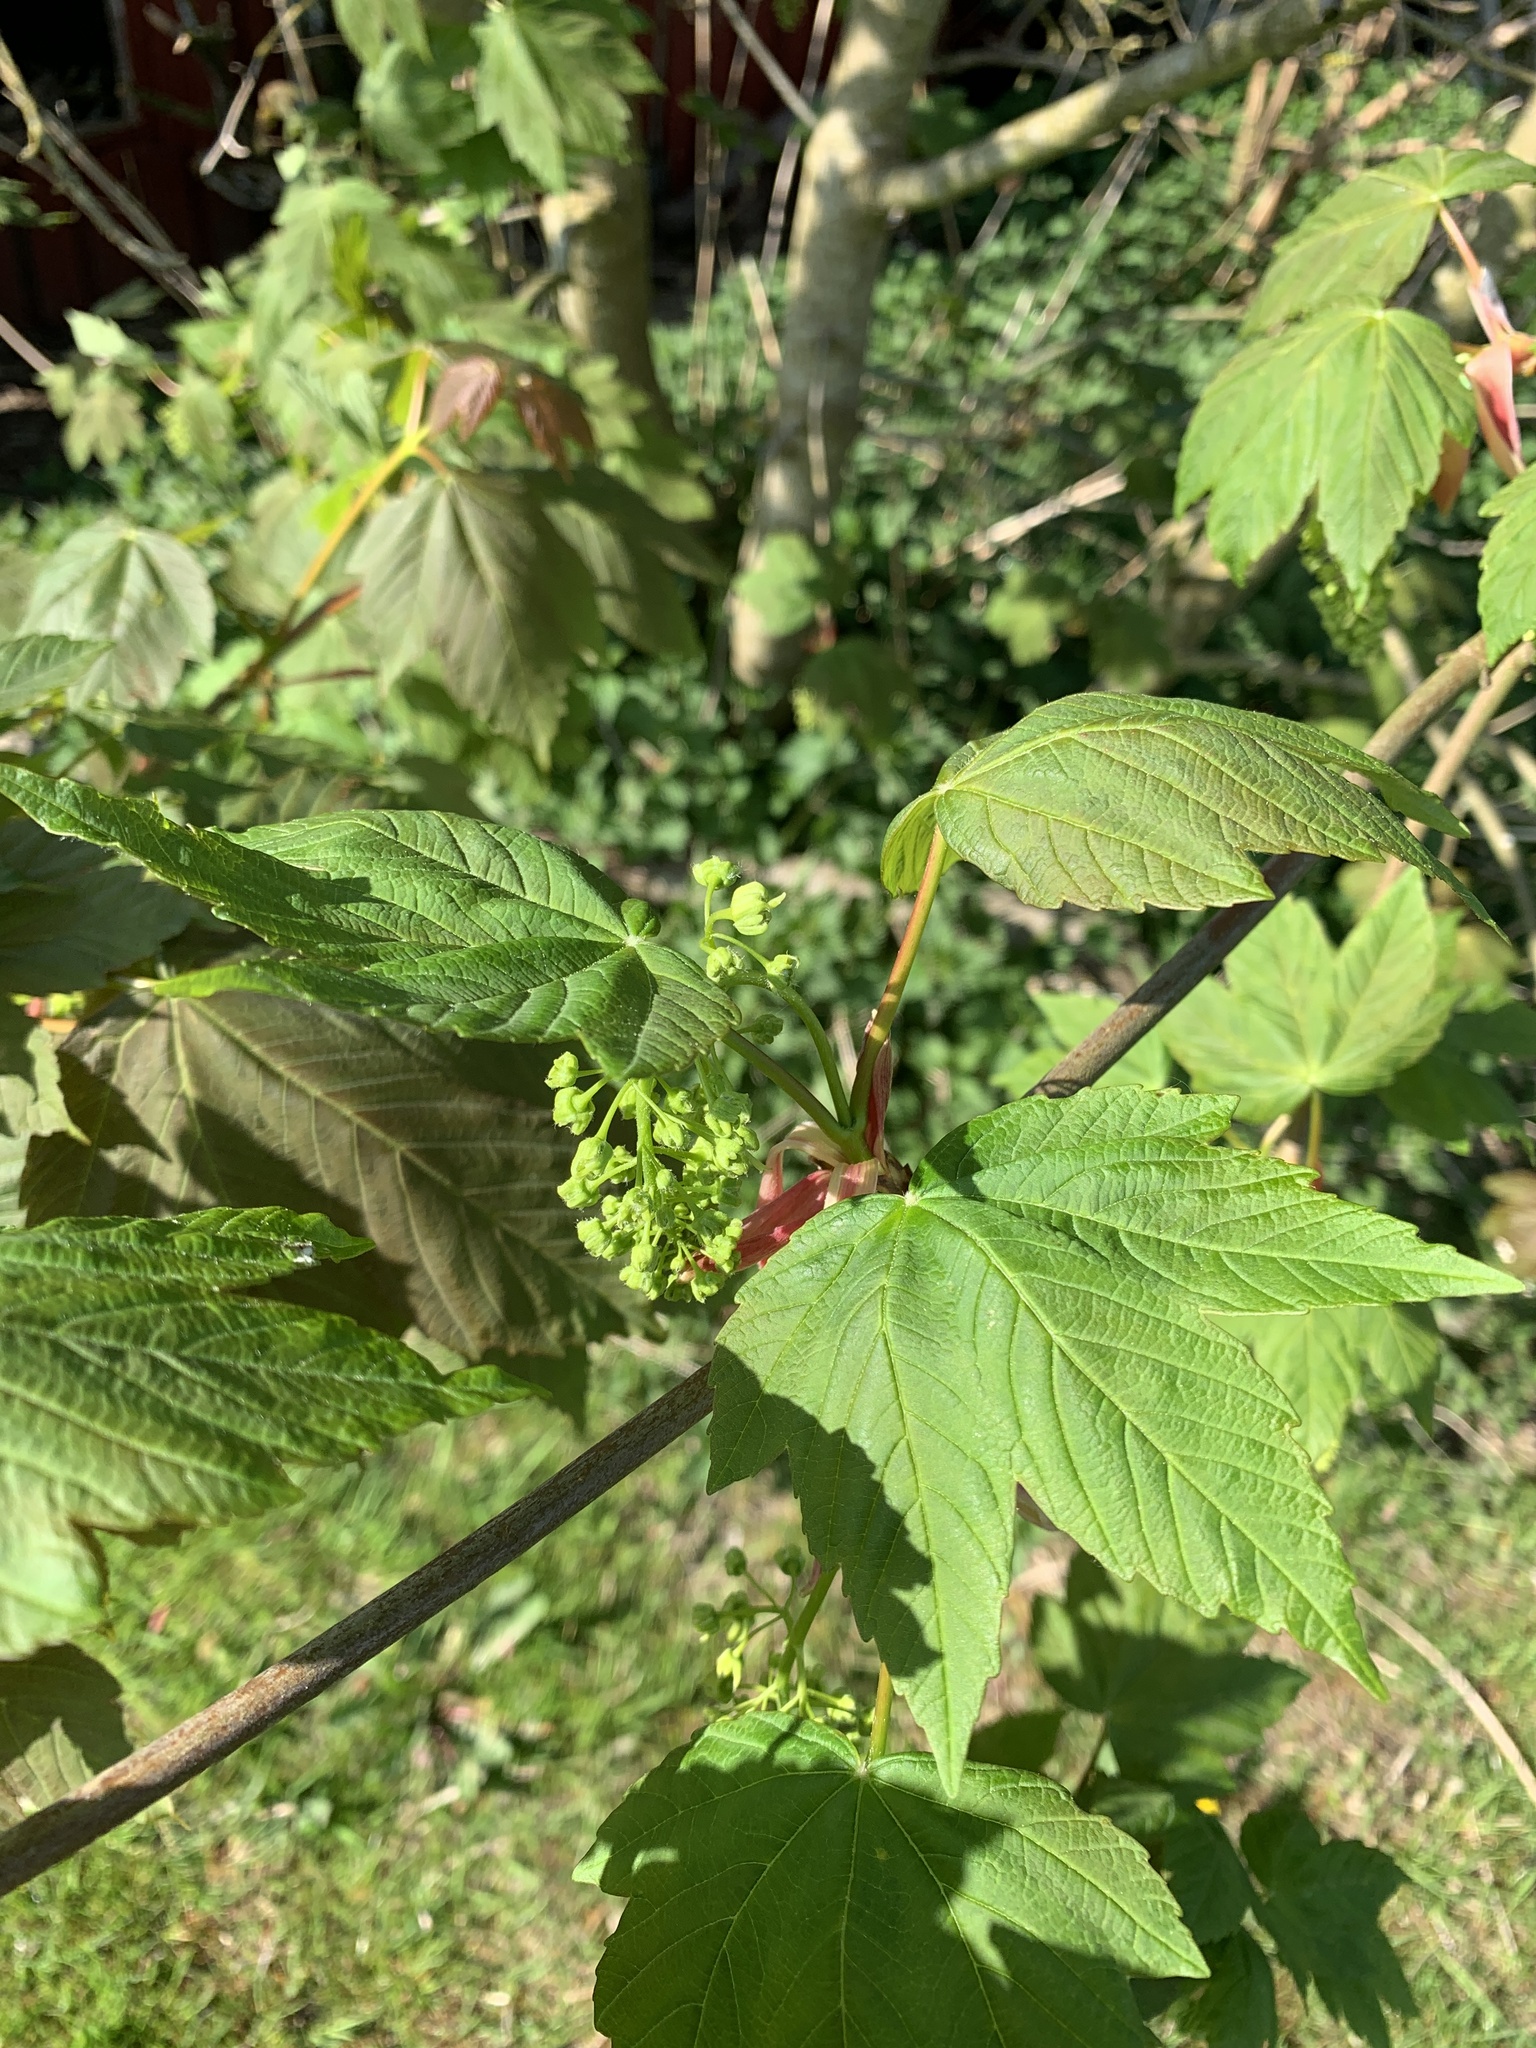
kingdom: Plantae
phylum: Tracheophyta
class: Magnoliopsida
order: Sapindales
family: Sapindaceae
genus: Acer
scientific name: Acer pseudoplatanus
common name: Sycamore
